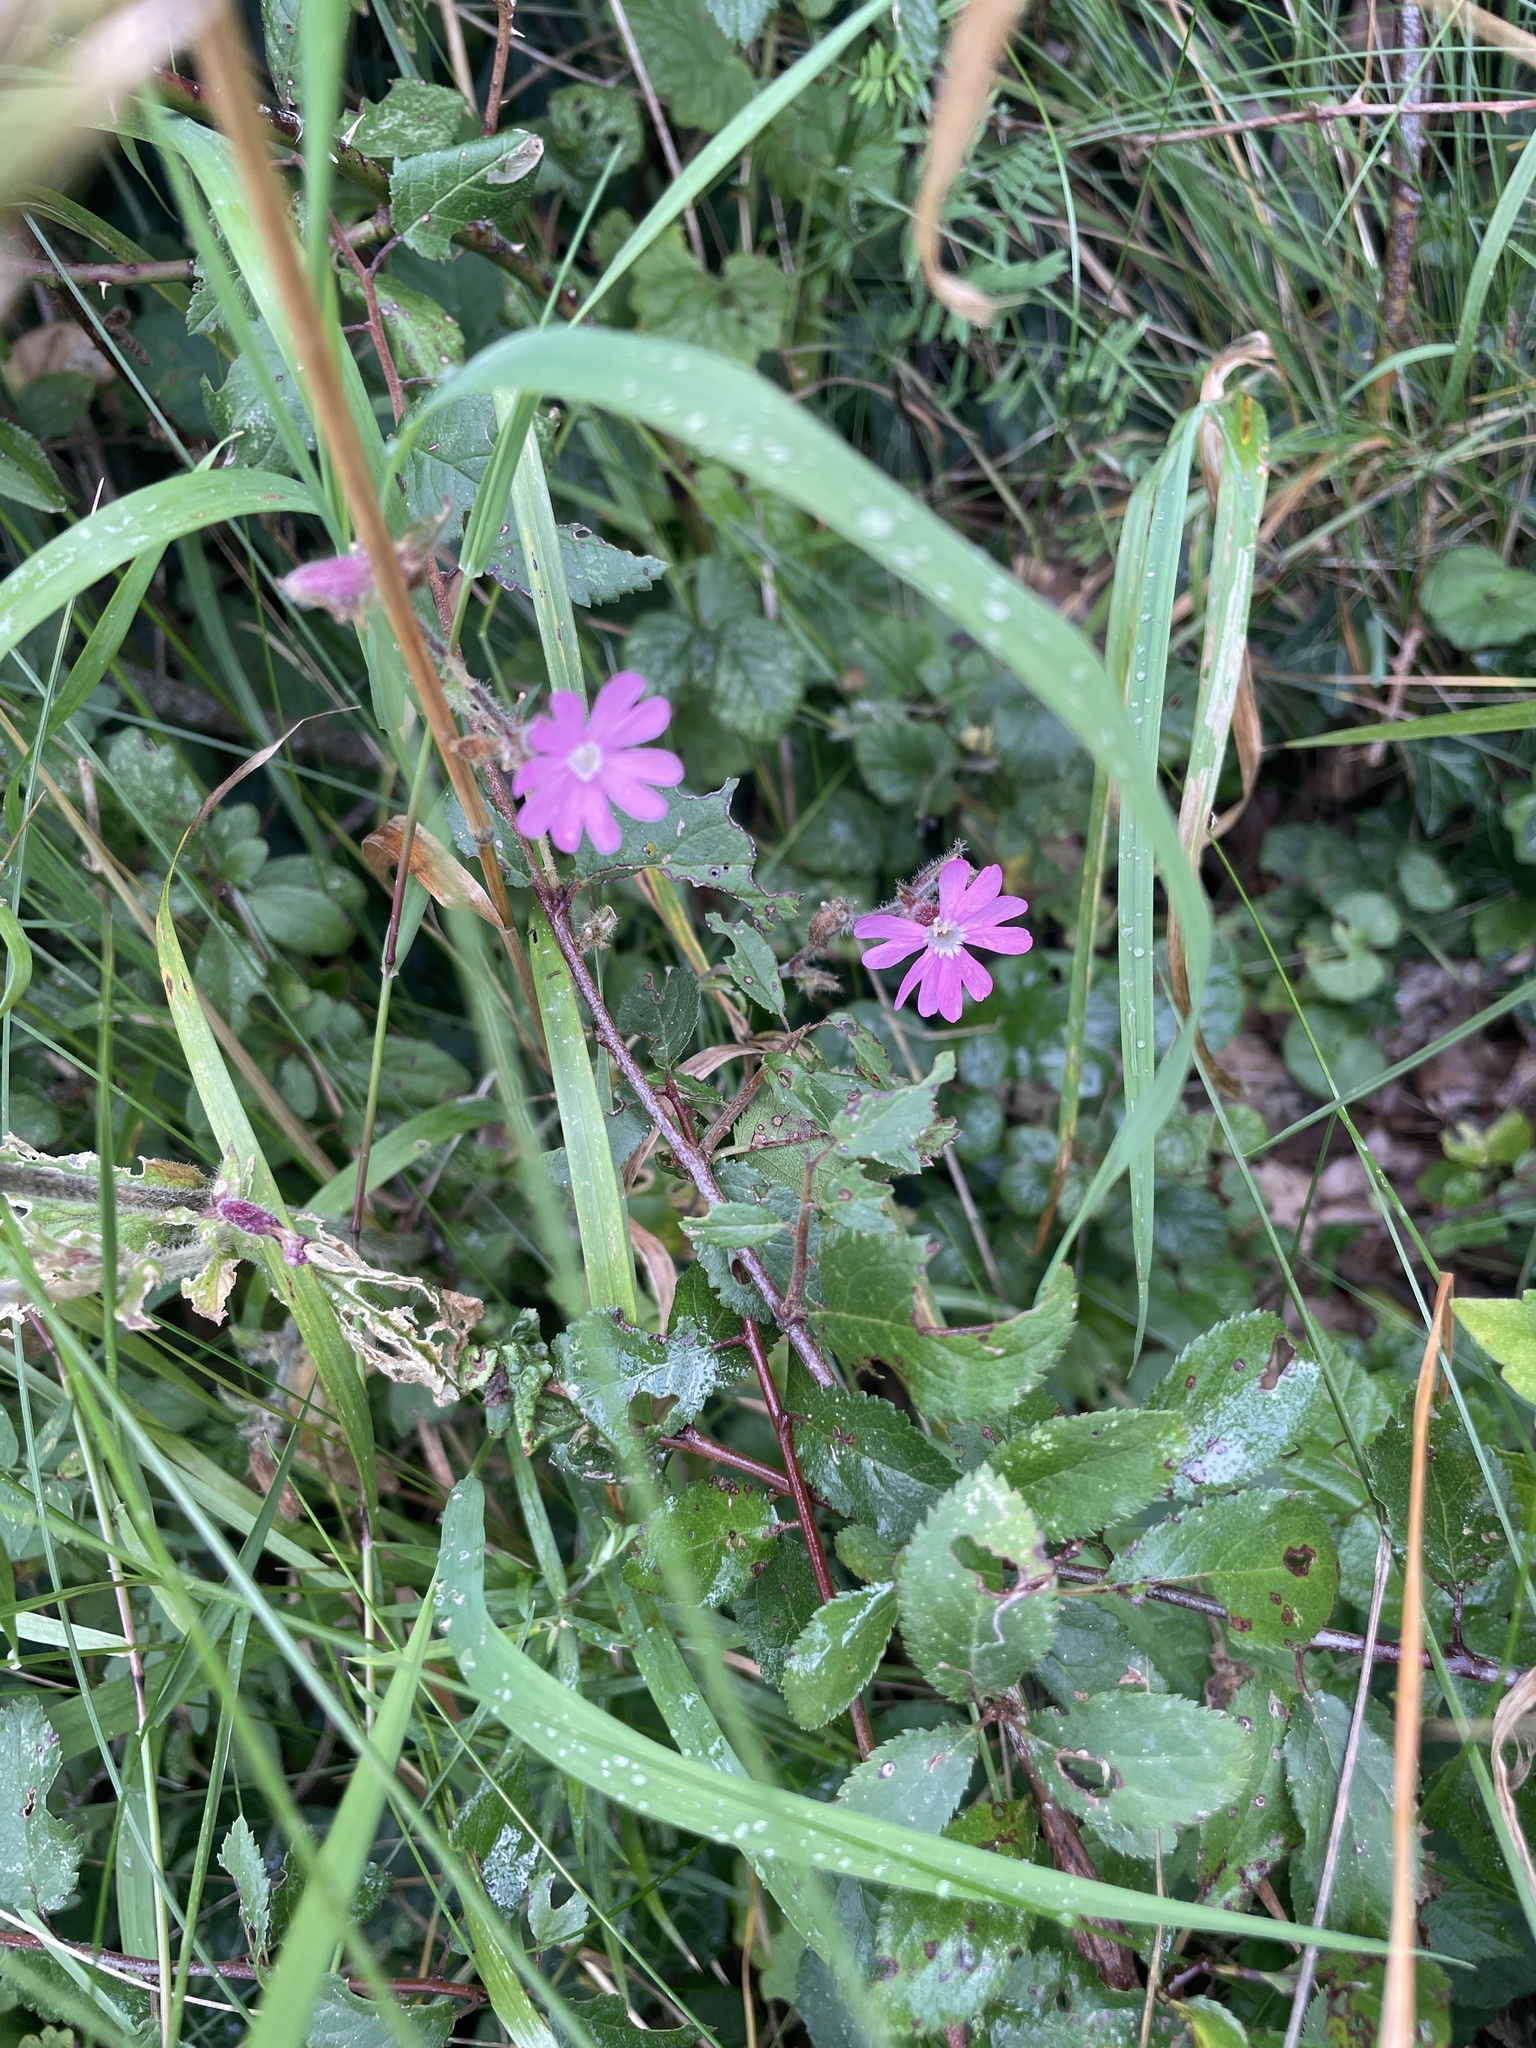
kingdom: Plantae
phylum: Tracheophyta
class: Magnoliopsida
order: Caryophyllales
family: Caryophyllaceae
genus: Silene
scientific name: Silene dioica
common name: Red campion
